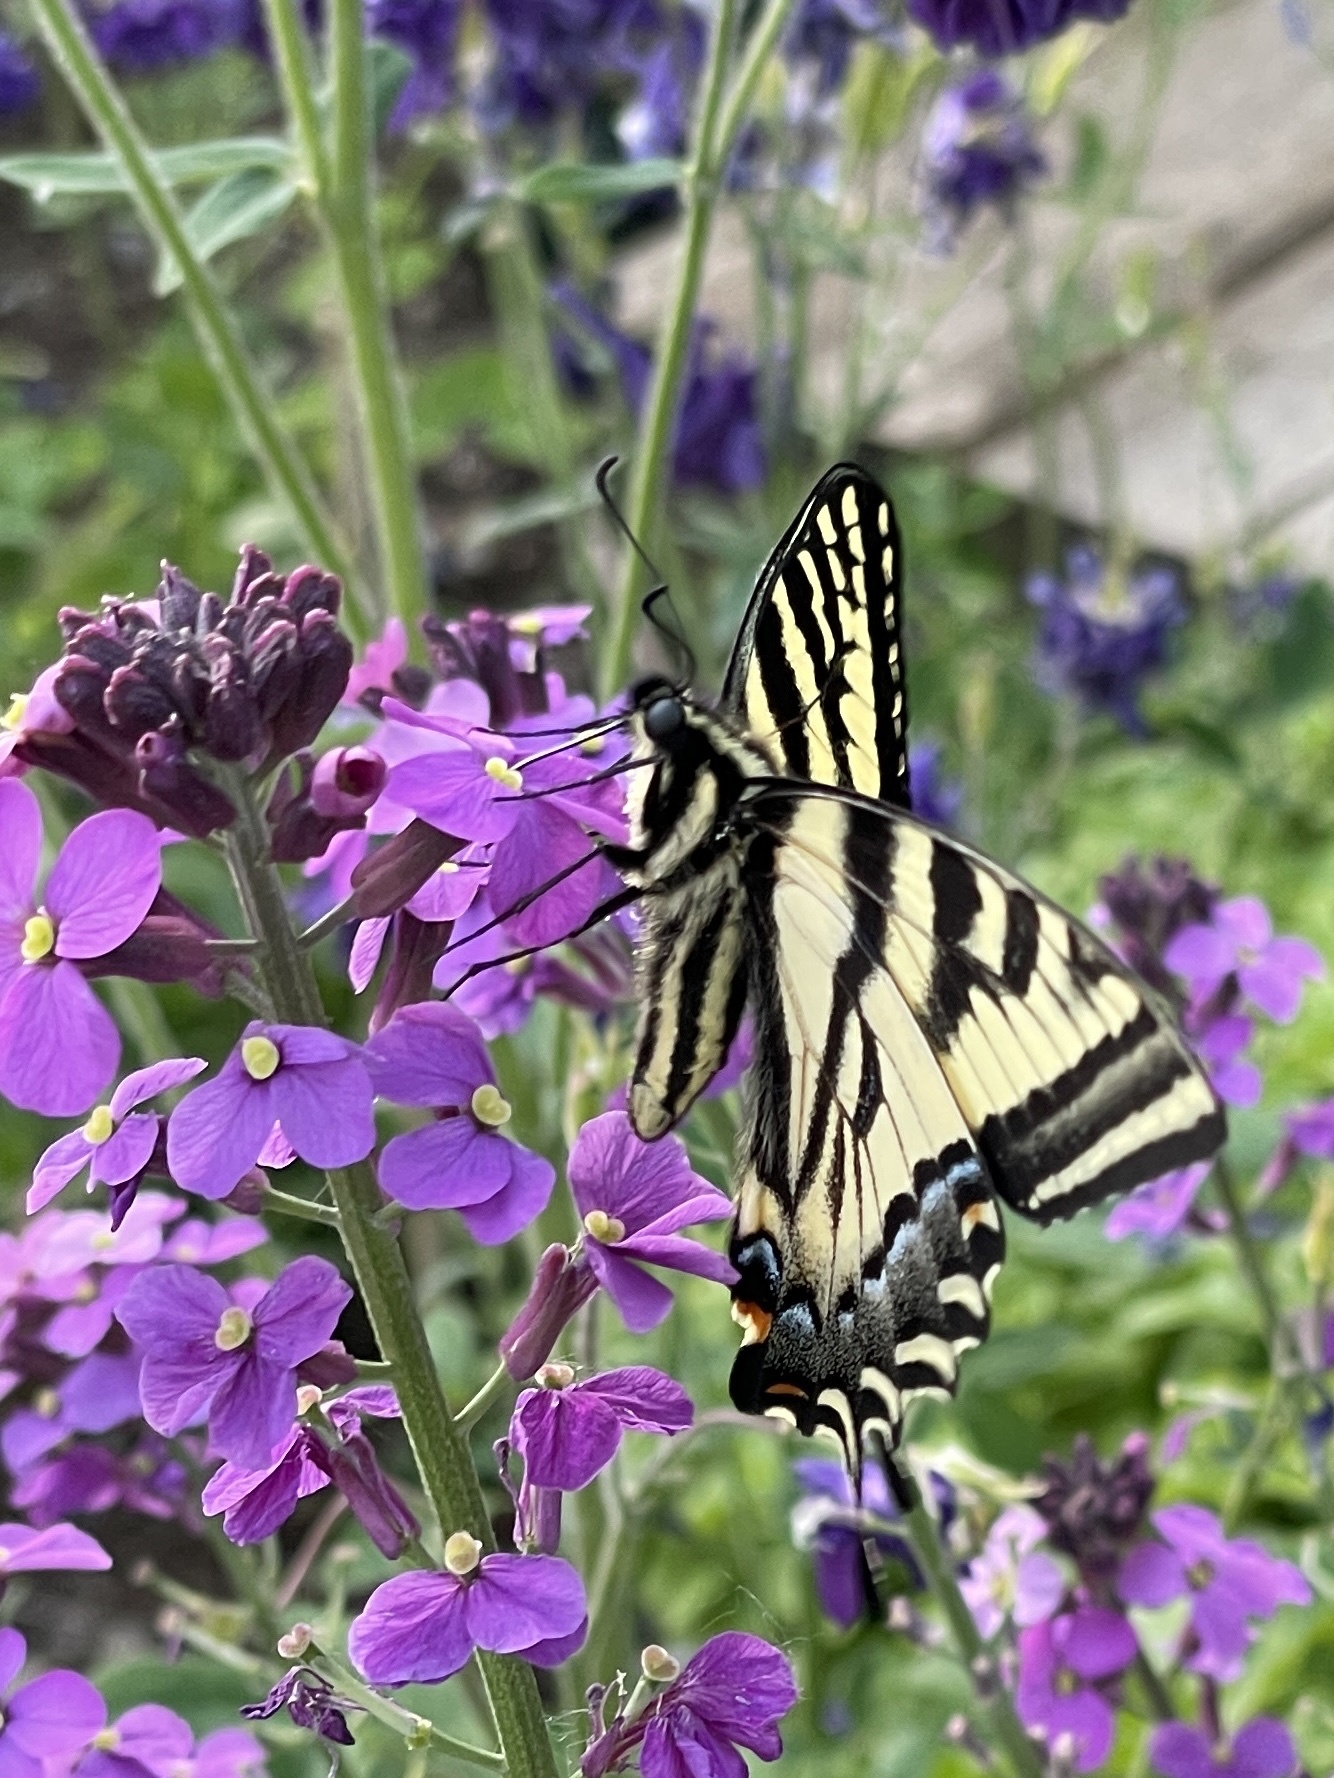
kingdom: Animalia
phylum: Arthropoda
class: Insecta
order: Lepidoptera
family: Papilionidae
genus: Papilio
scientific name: Papilio rutulus
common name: Western tiger swallowtail
